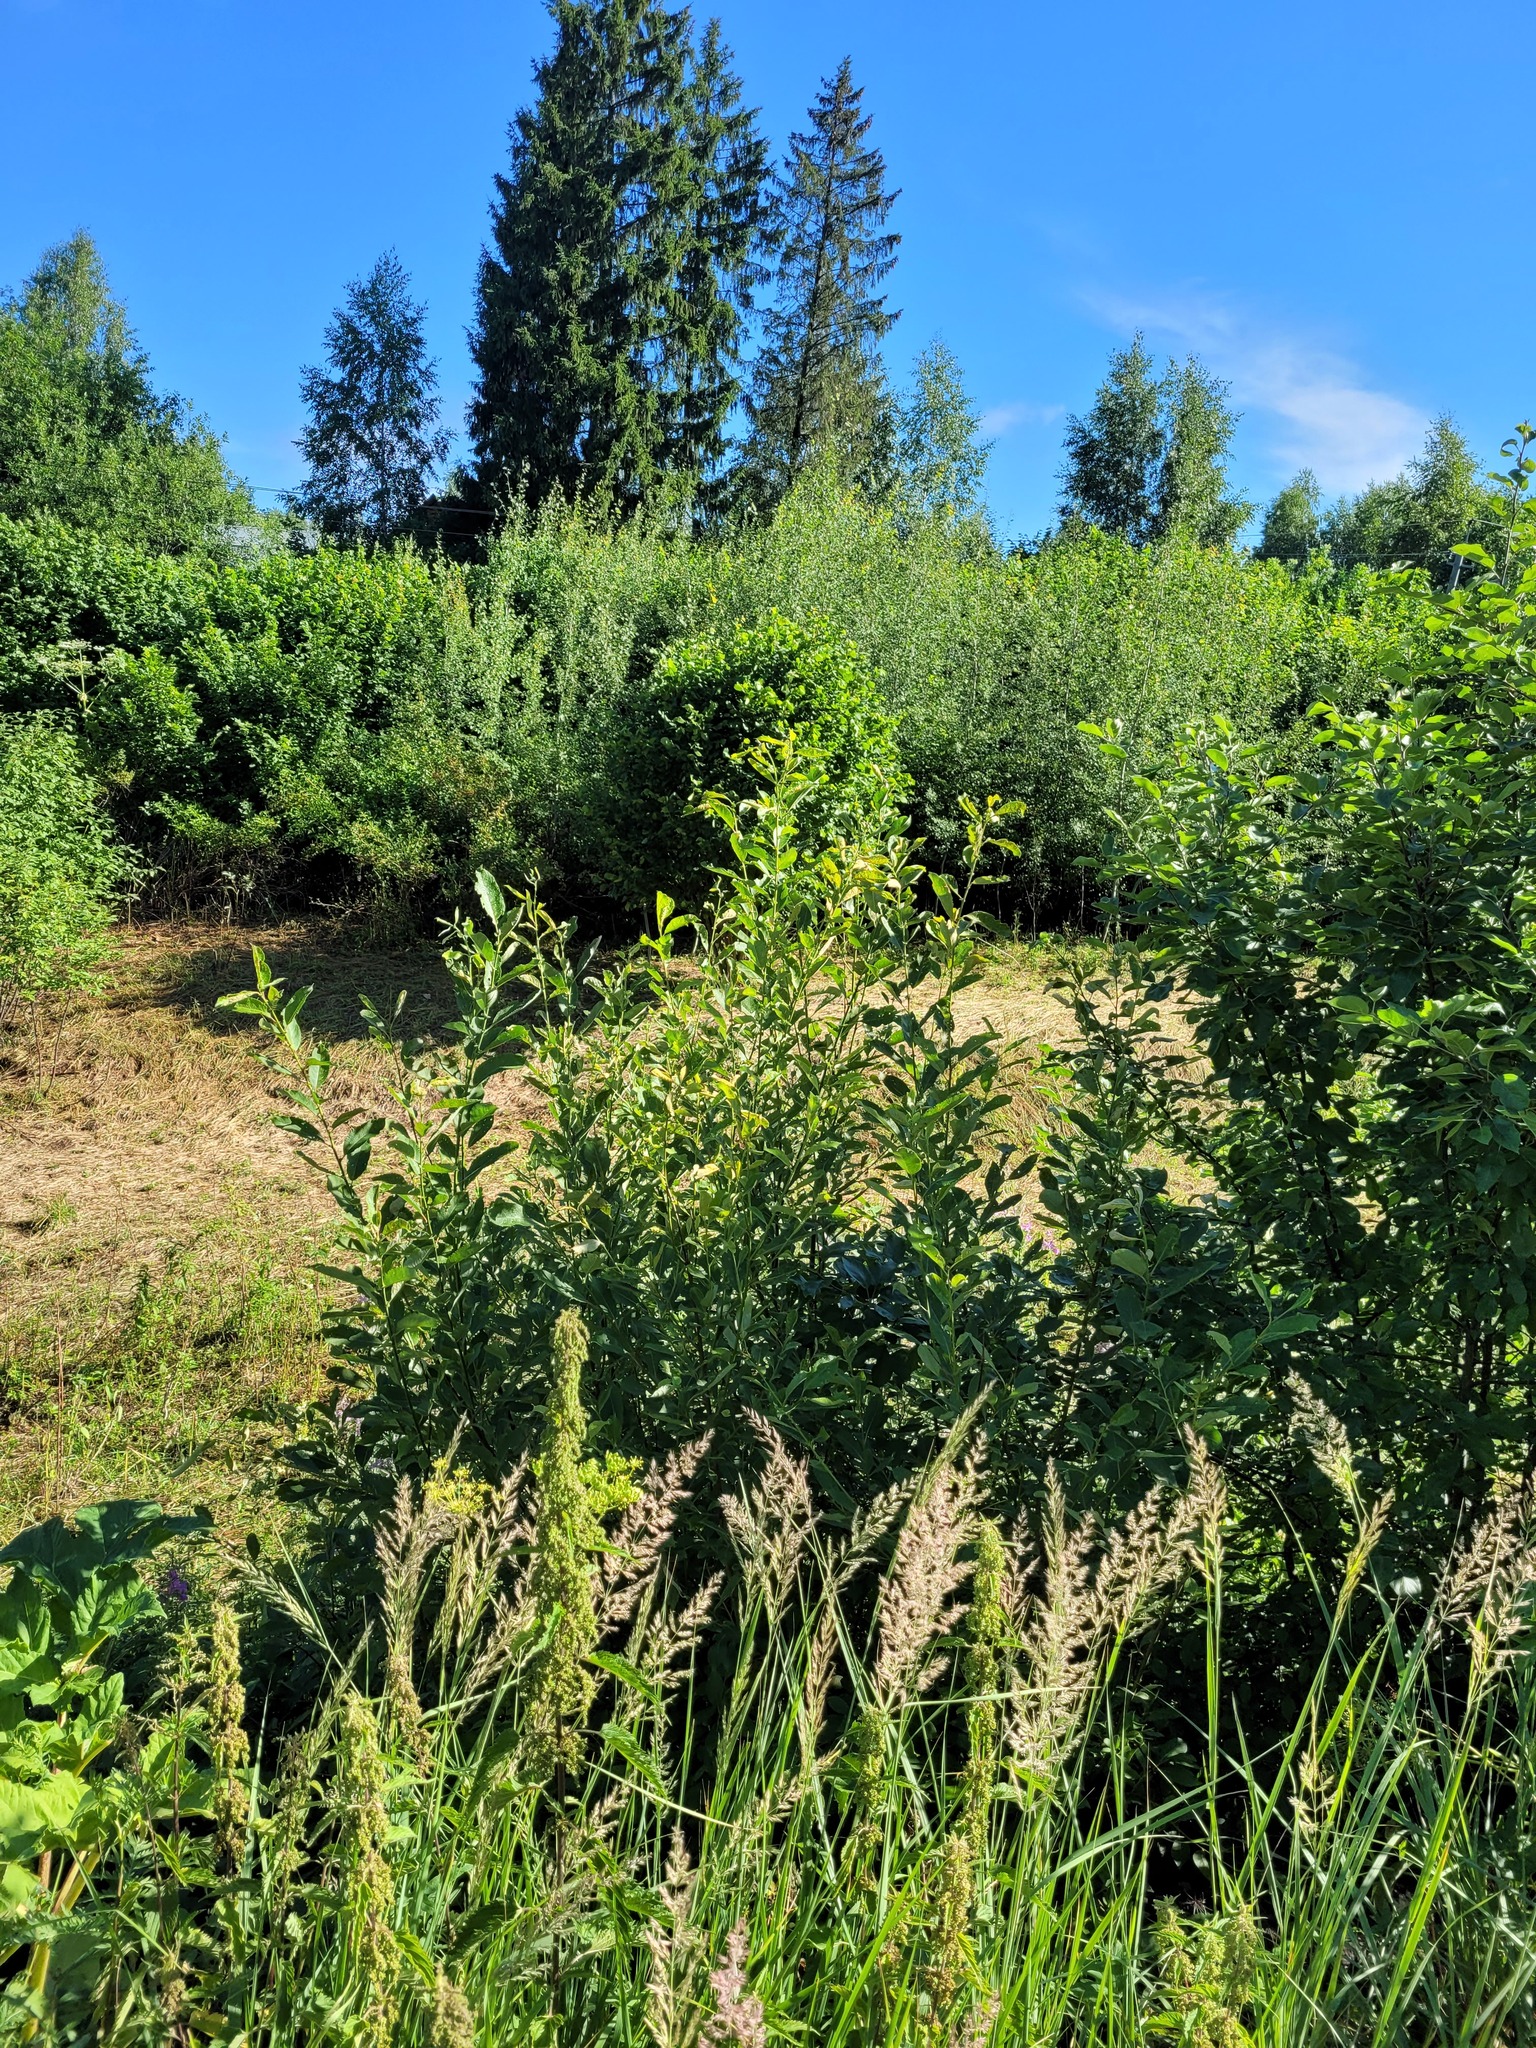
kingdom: Plantae
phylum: Tracheophyta
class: Magnoliopsida
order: Malpighiales
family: Salicaceae
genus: Salix
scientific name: Salix cinerea
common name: Common sallow
